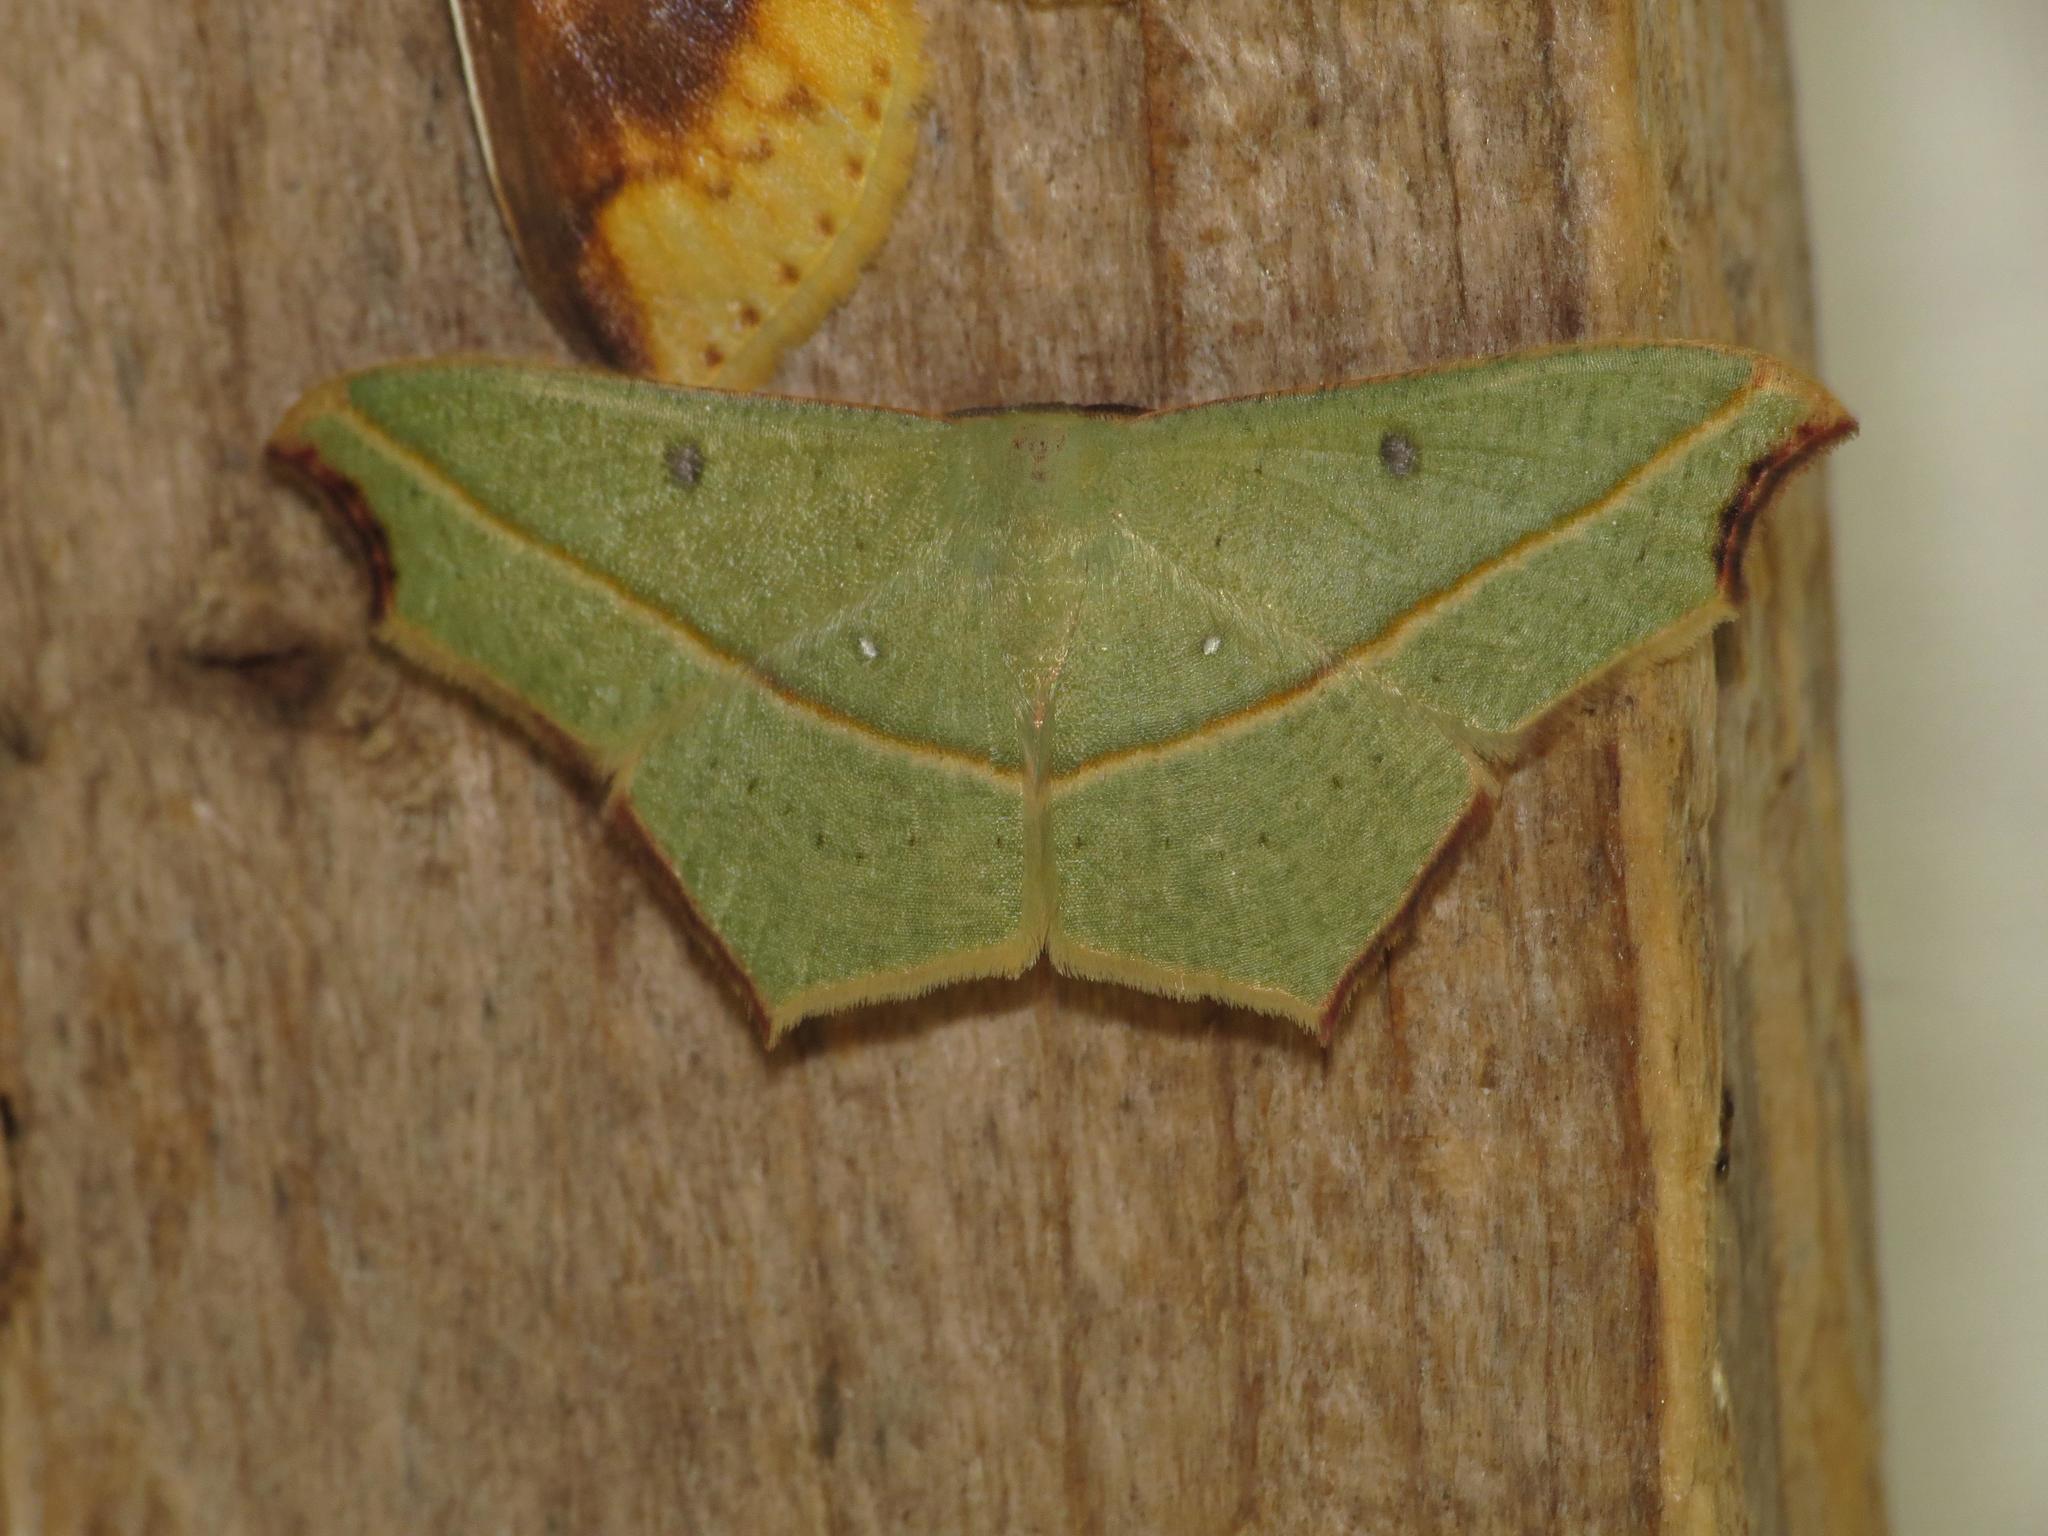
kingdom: Animalia
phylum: Arthropoda
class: Insecta
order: Lepidoptera
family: Geometridae
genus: Traminda
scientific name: Traminda aventiaria
